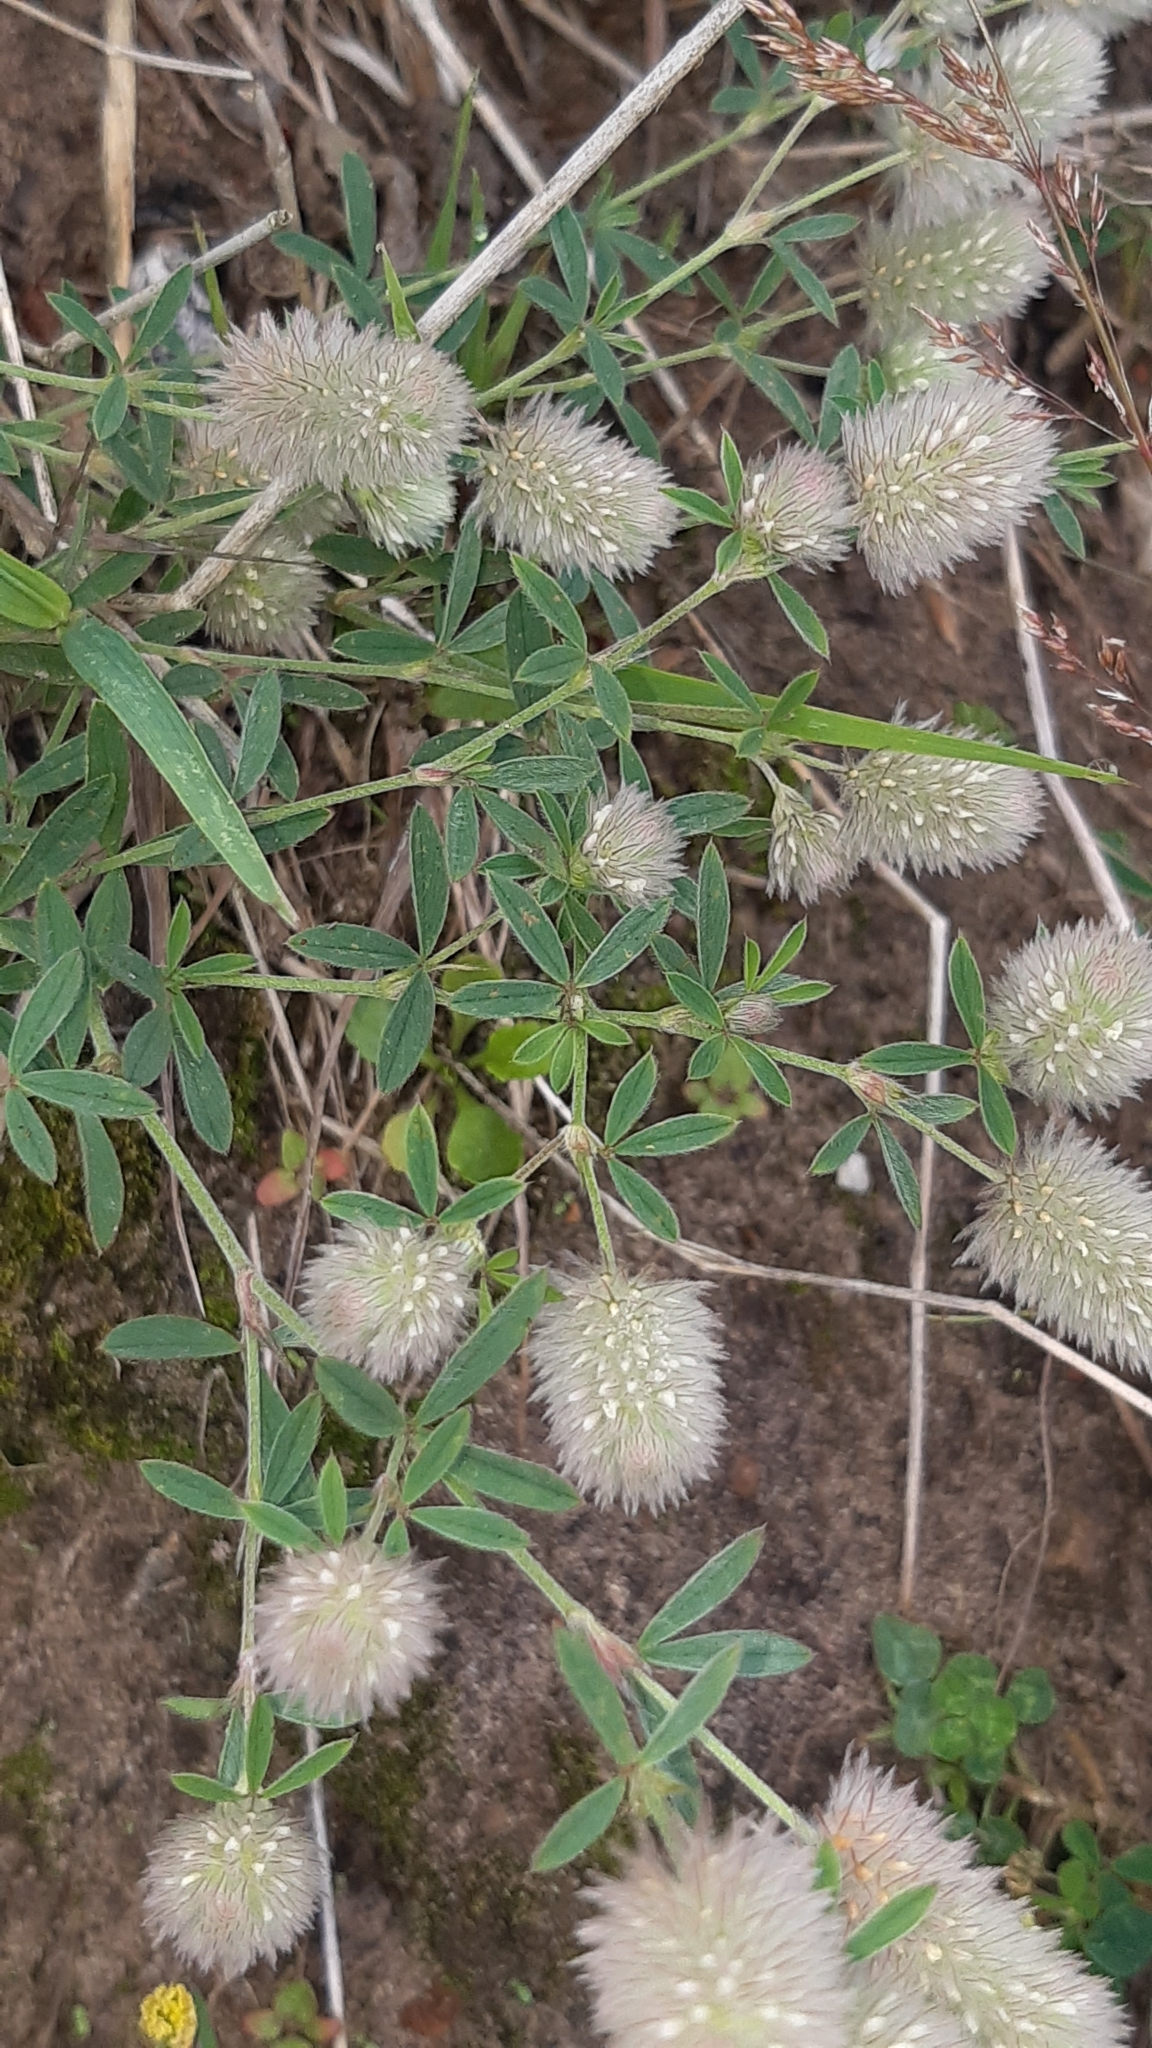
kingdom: Plantae
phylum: Tracheophyta
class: Magnoliopsida
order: Fabales
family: Fabaceae
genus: Trifolium
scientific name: Trifolium arvense
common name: Hare's-foot clover
